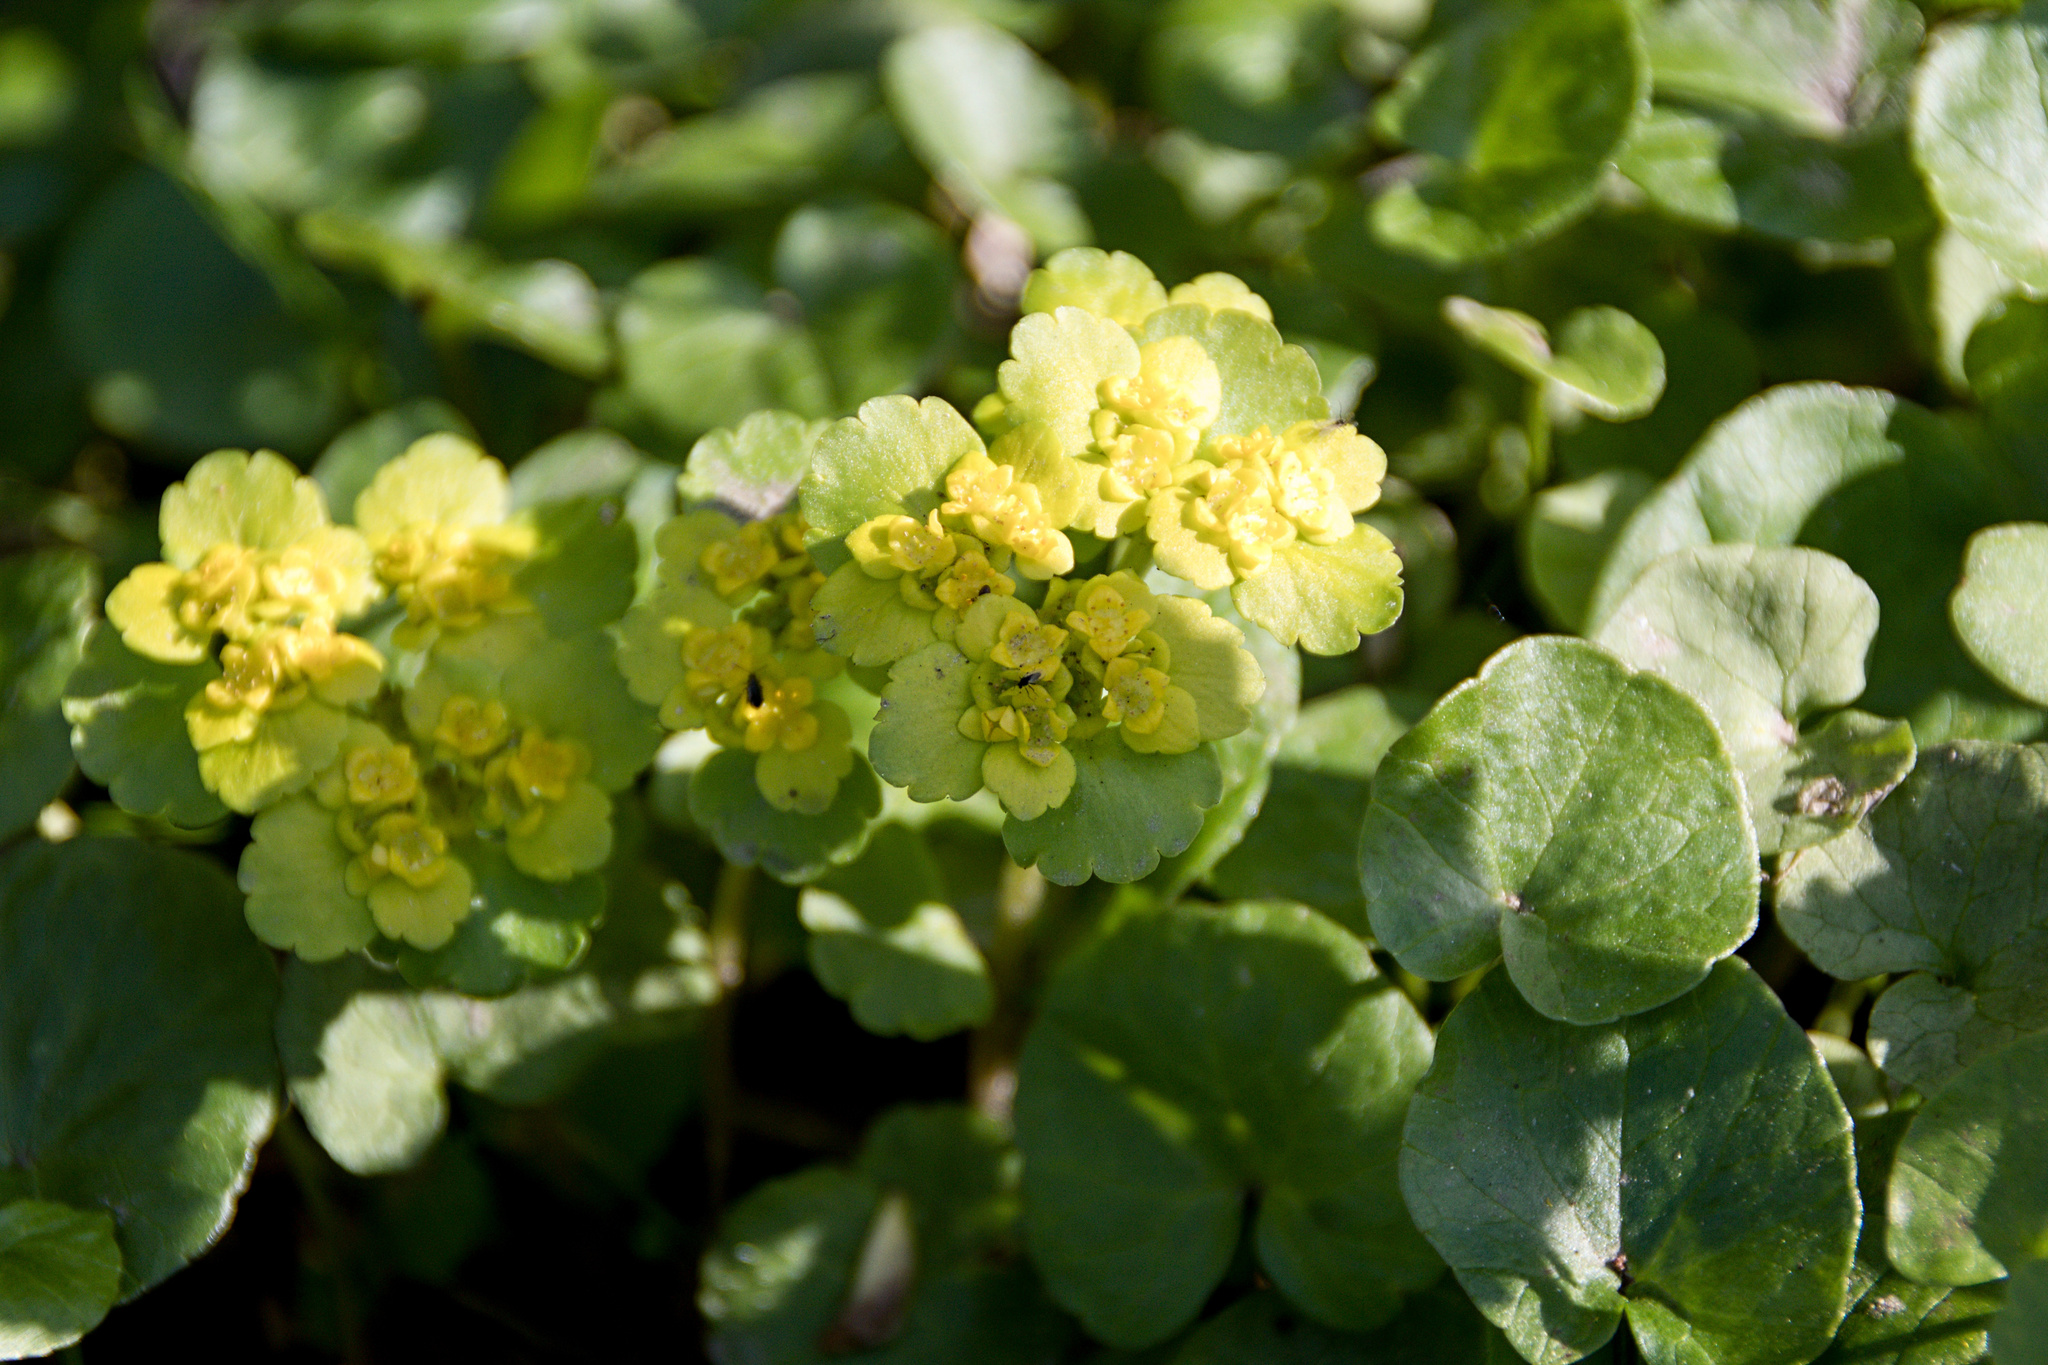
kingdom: Plantae
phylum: Tracheophyta
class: Magnoliopsida
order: Saxifragales
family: Saxifragaceae
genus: Chrysosplenium
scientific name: Chrysosplenium alternifolium
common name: Alternate-leaved golden-saxifrage
